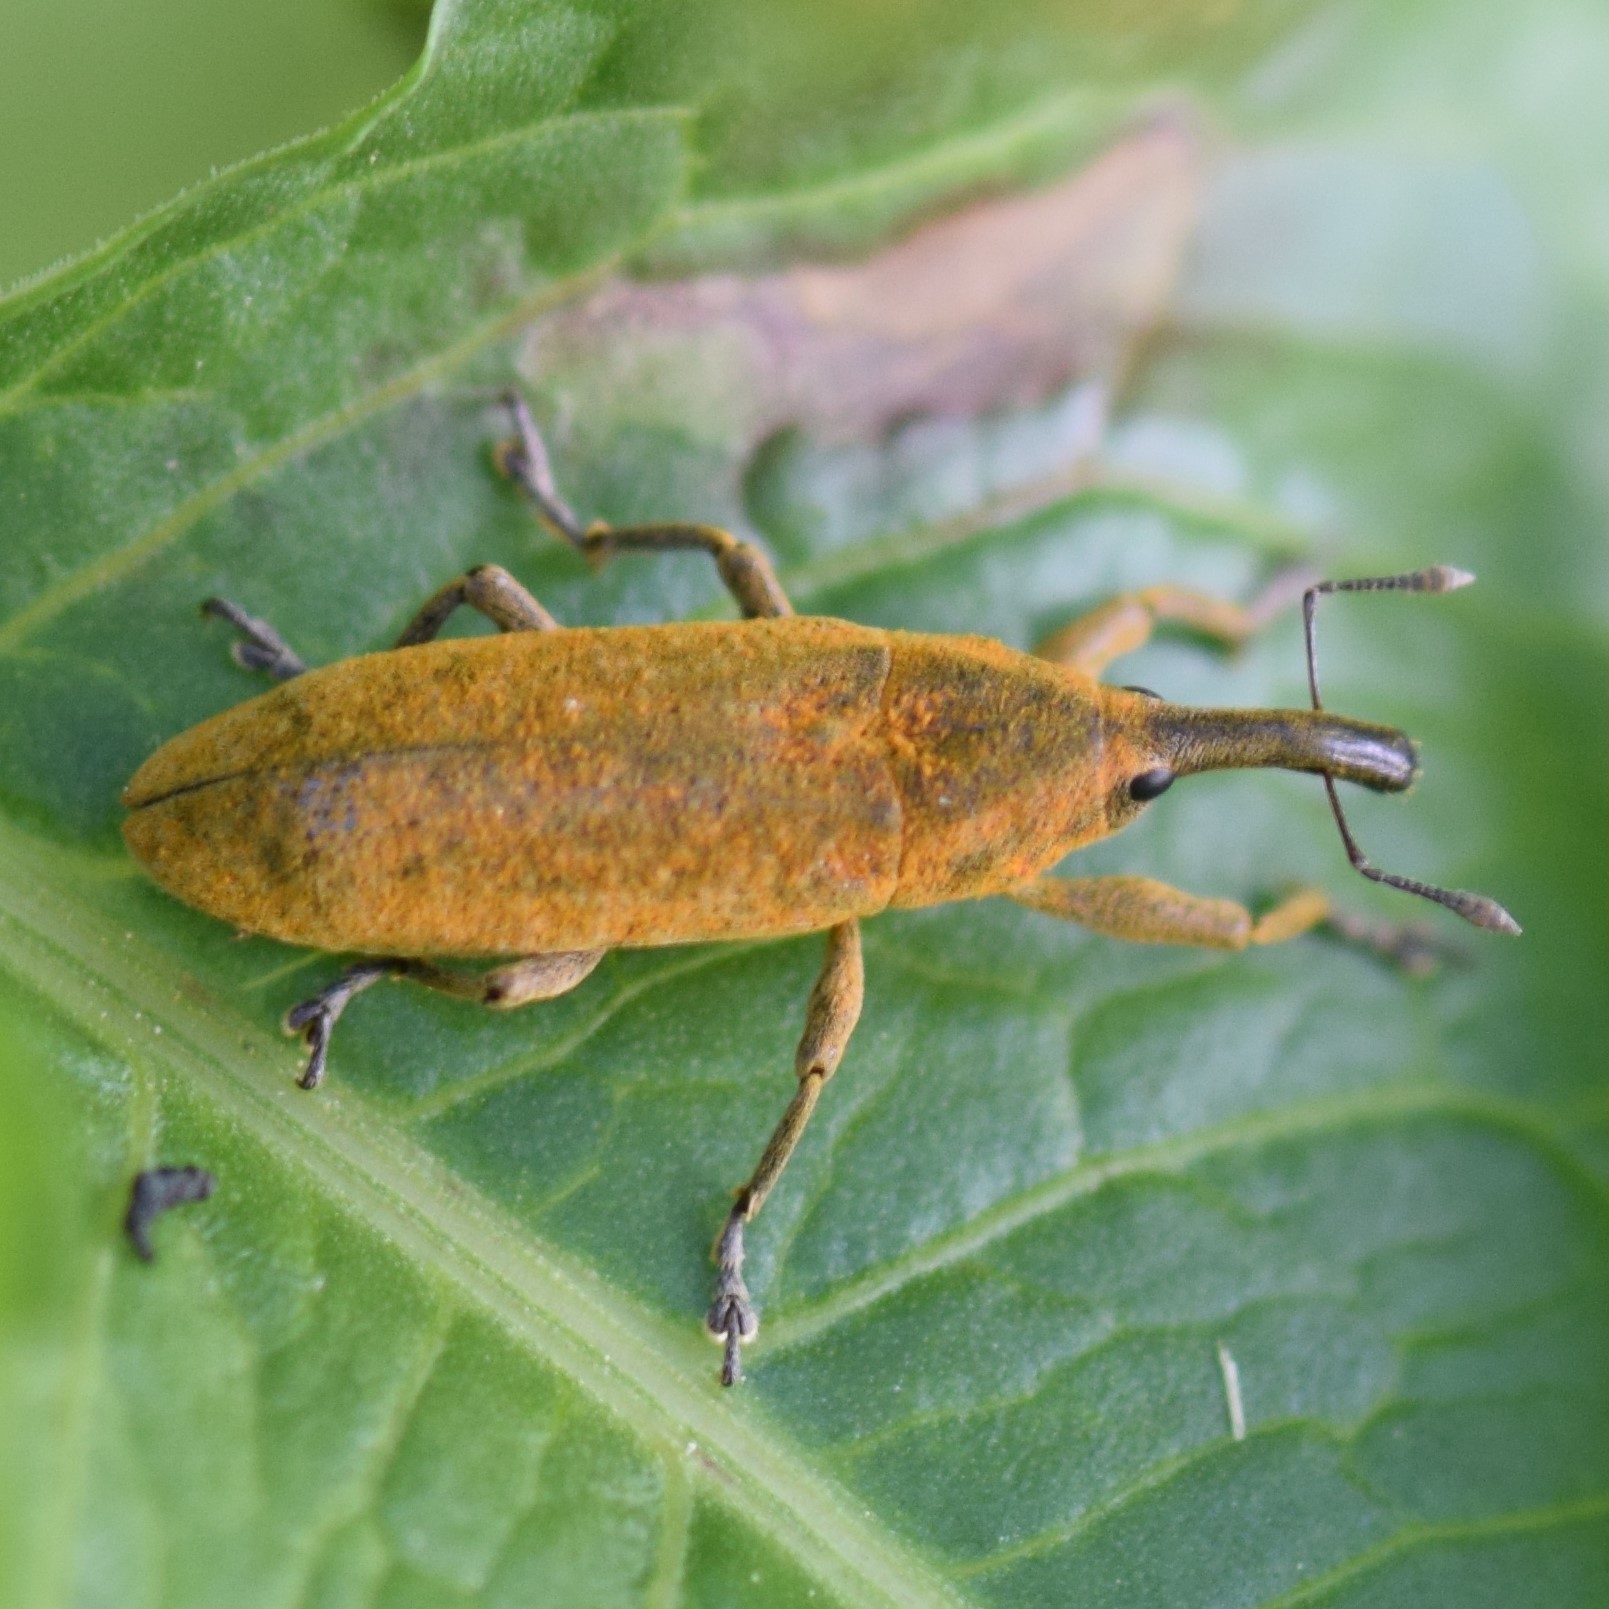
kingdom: Animalia
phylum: Arthropoda
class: Insecta
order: Coleoptera
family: Curculionidae
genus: Lixus
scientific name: Lixus concavus
